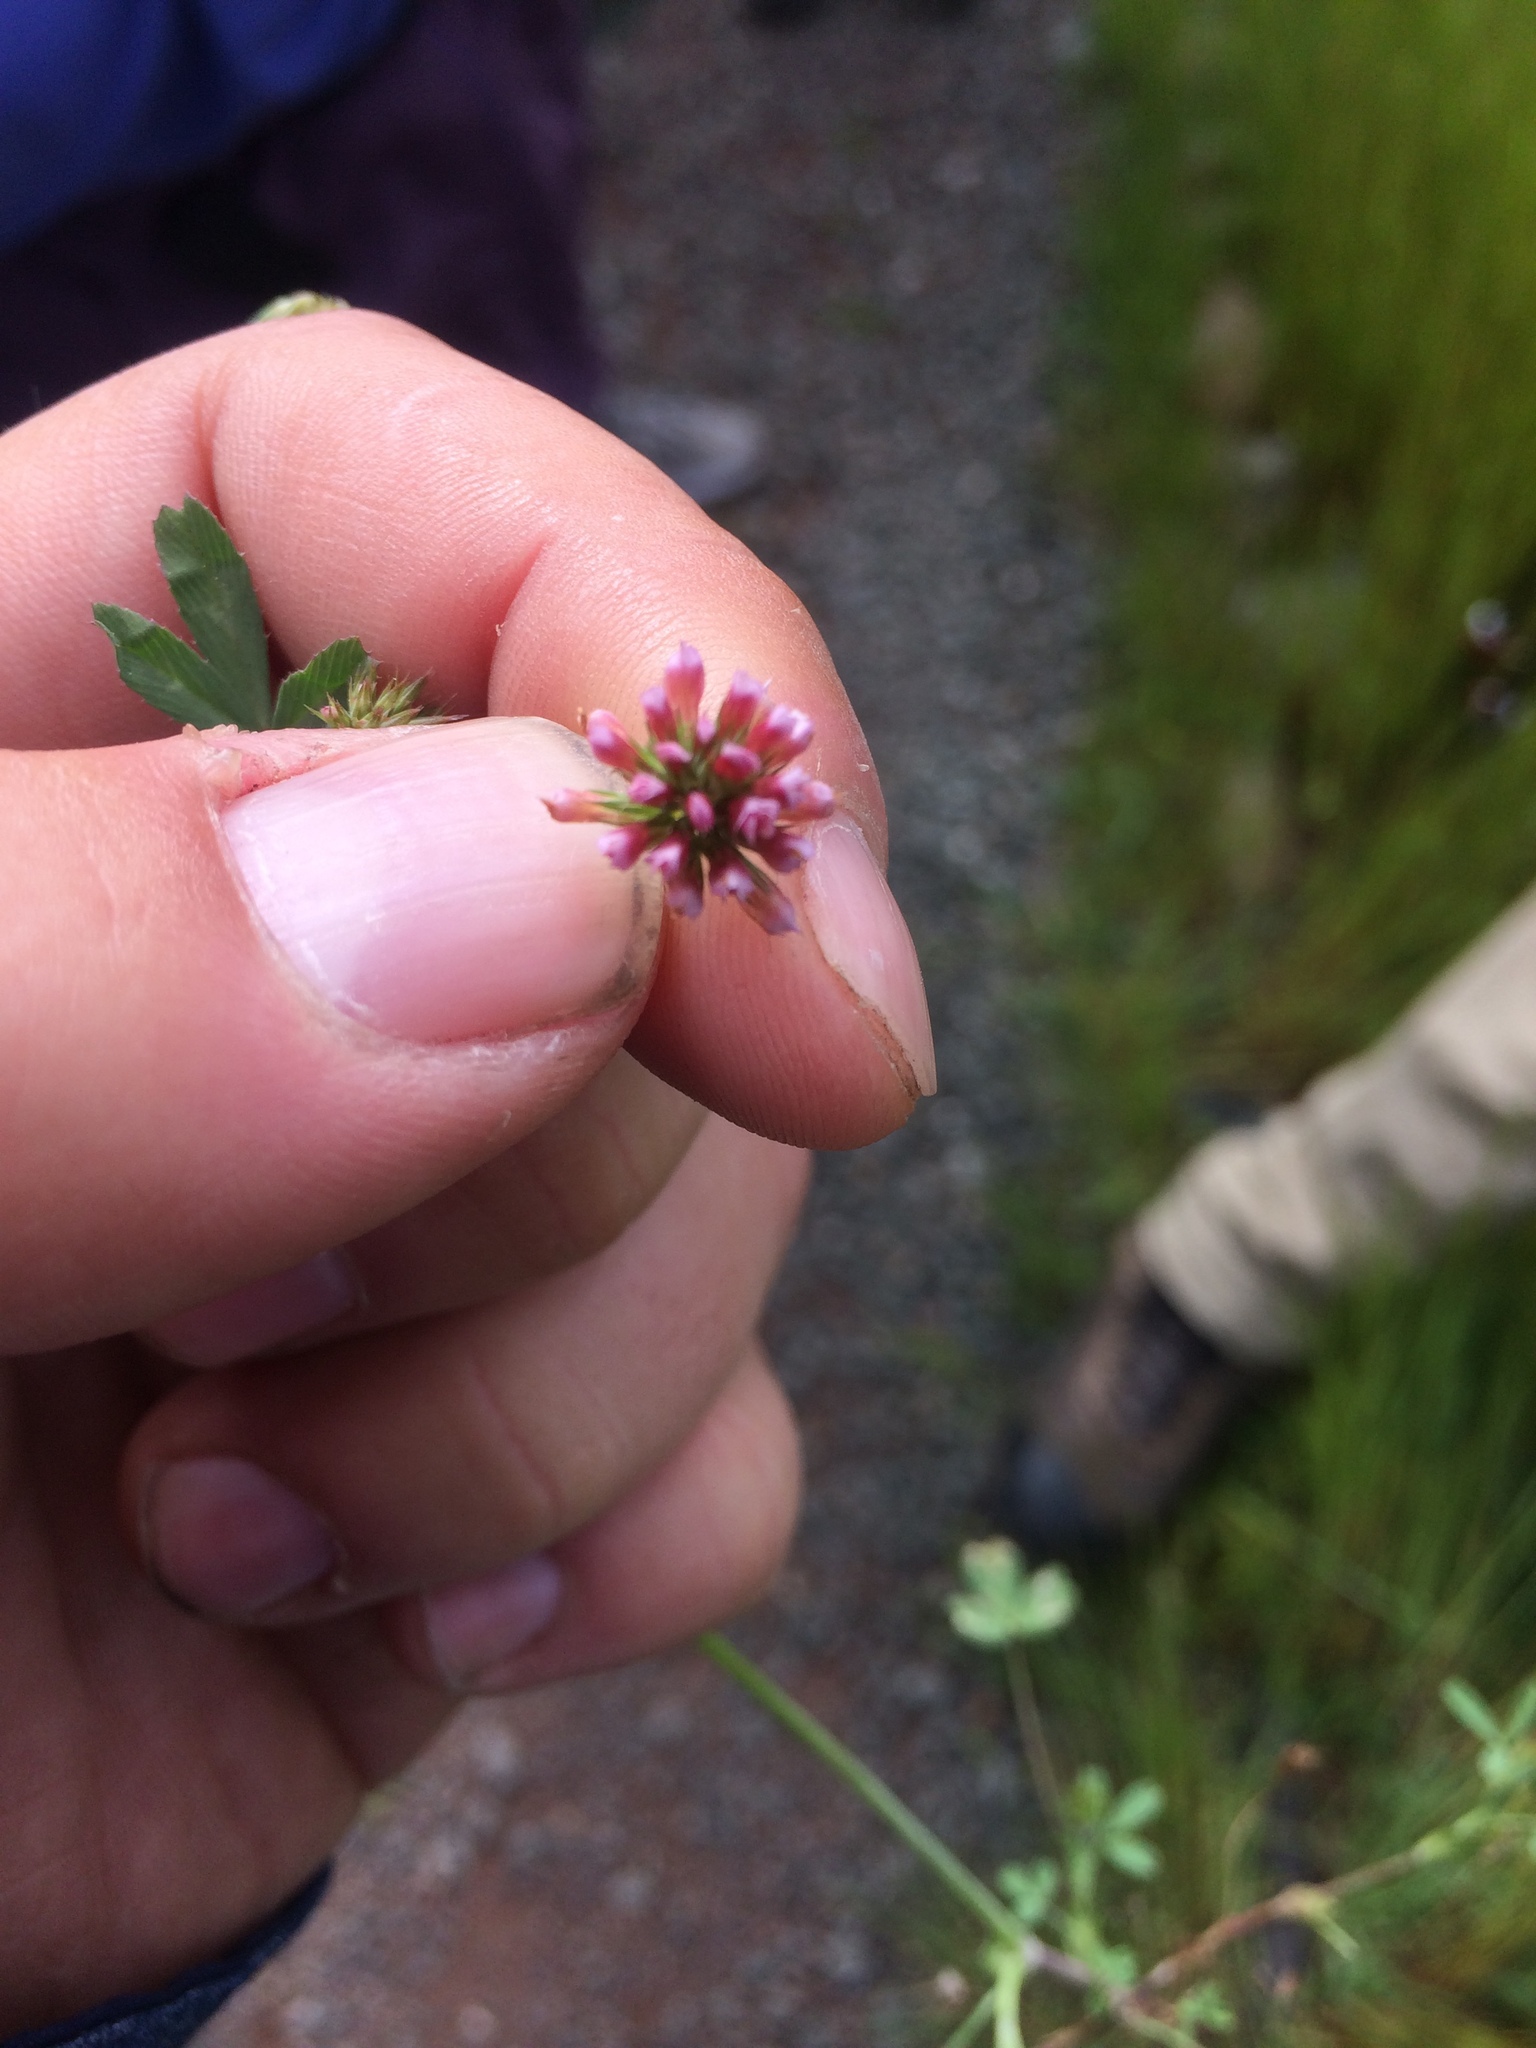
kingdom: Plantae
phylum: Tracheophyta
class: Magnoliopsida
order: Fabales
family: Fabaceae
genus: Trifolium
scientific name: Trifolium bifidum
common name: Notch-leaf clover
